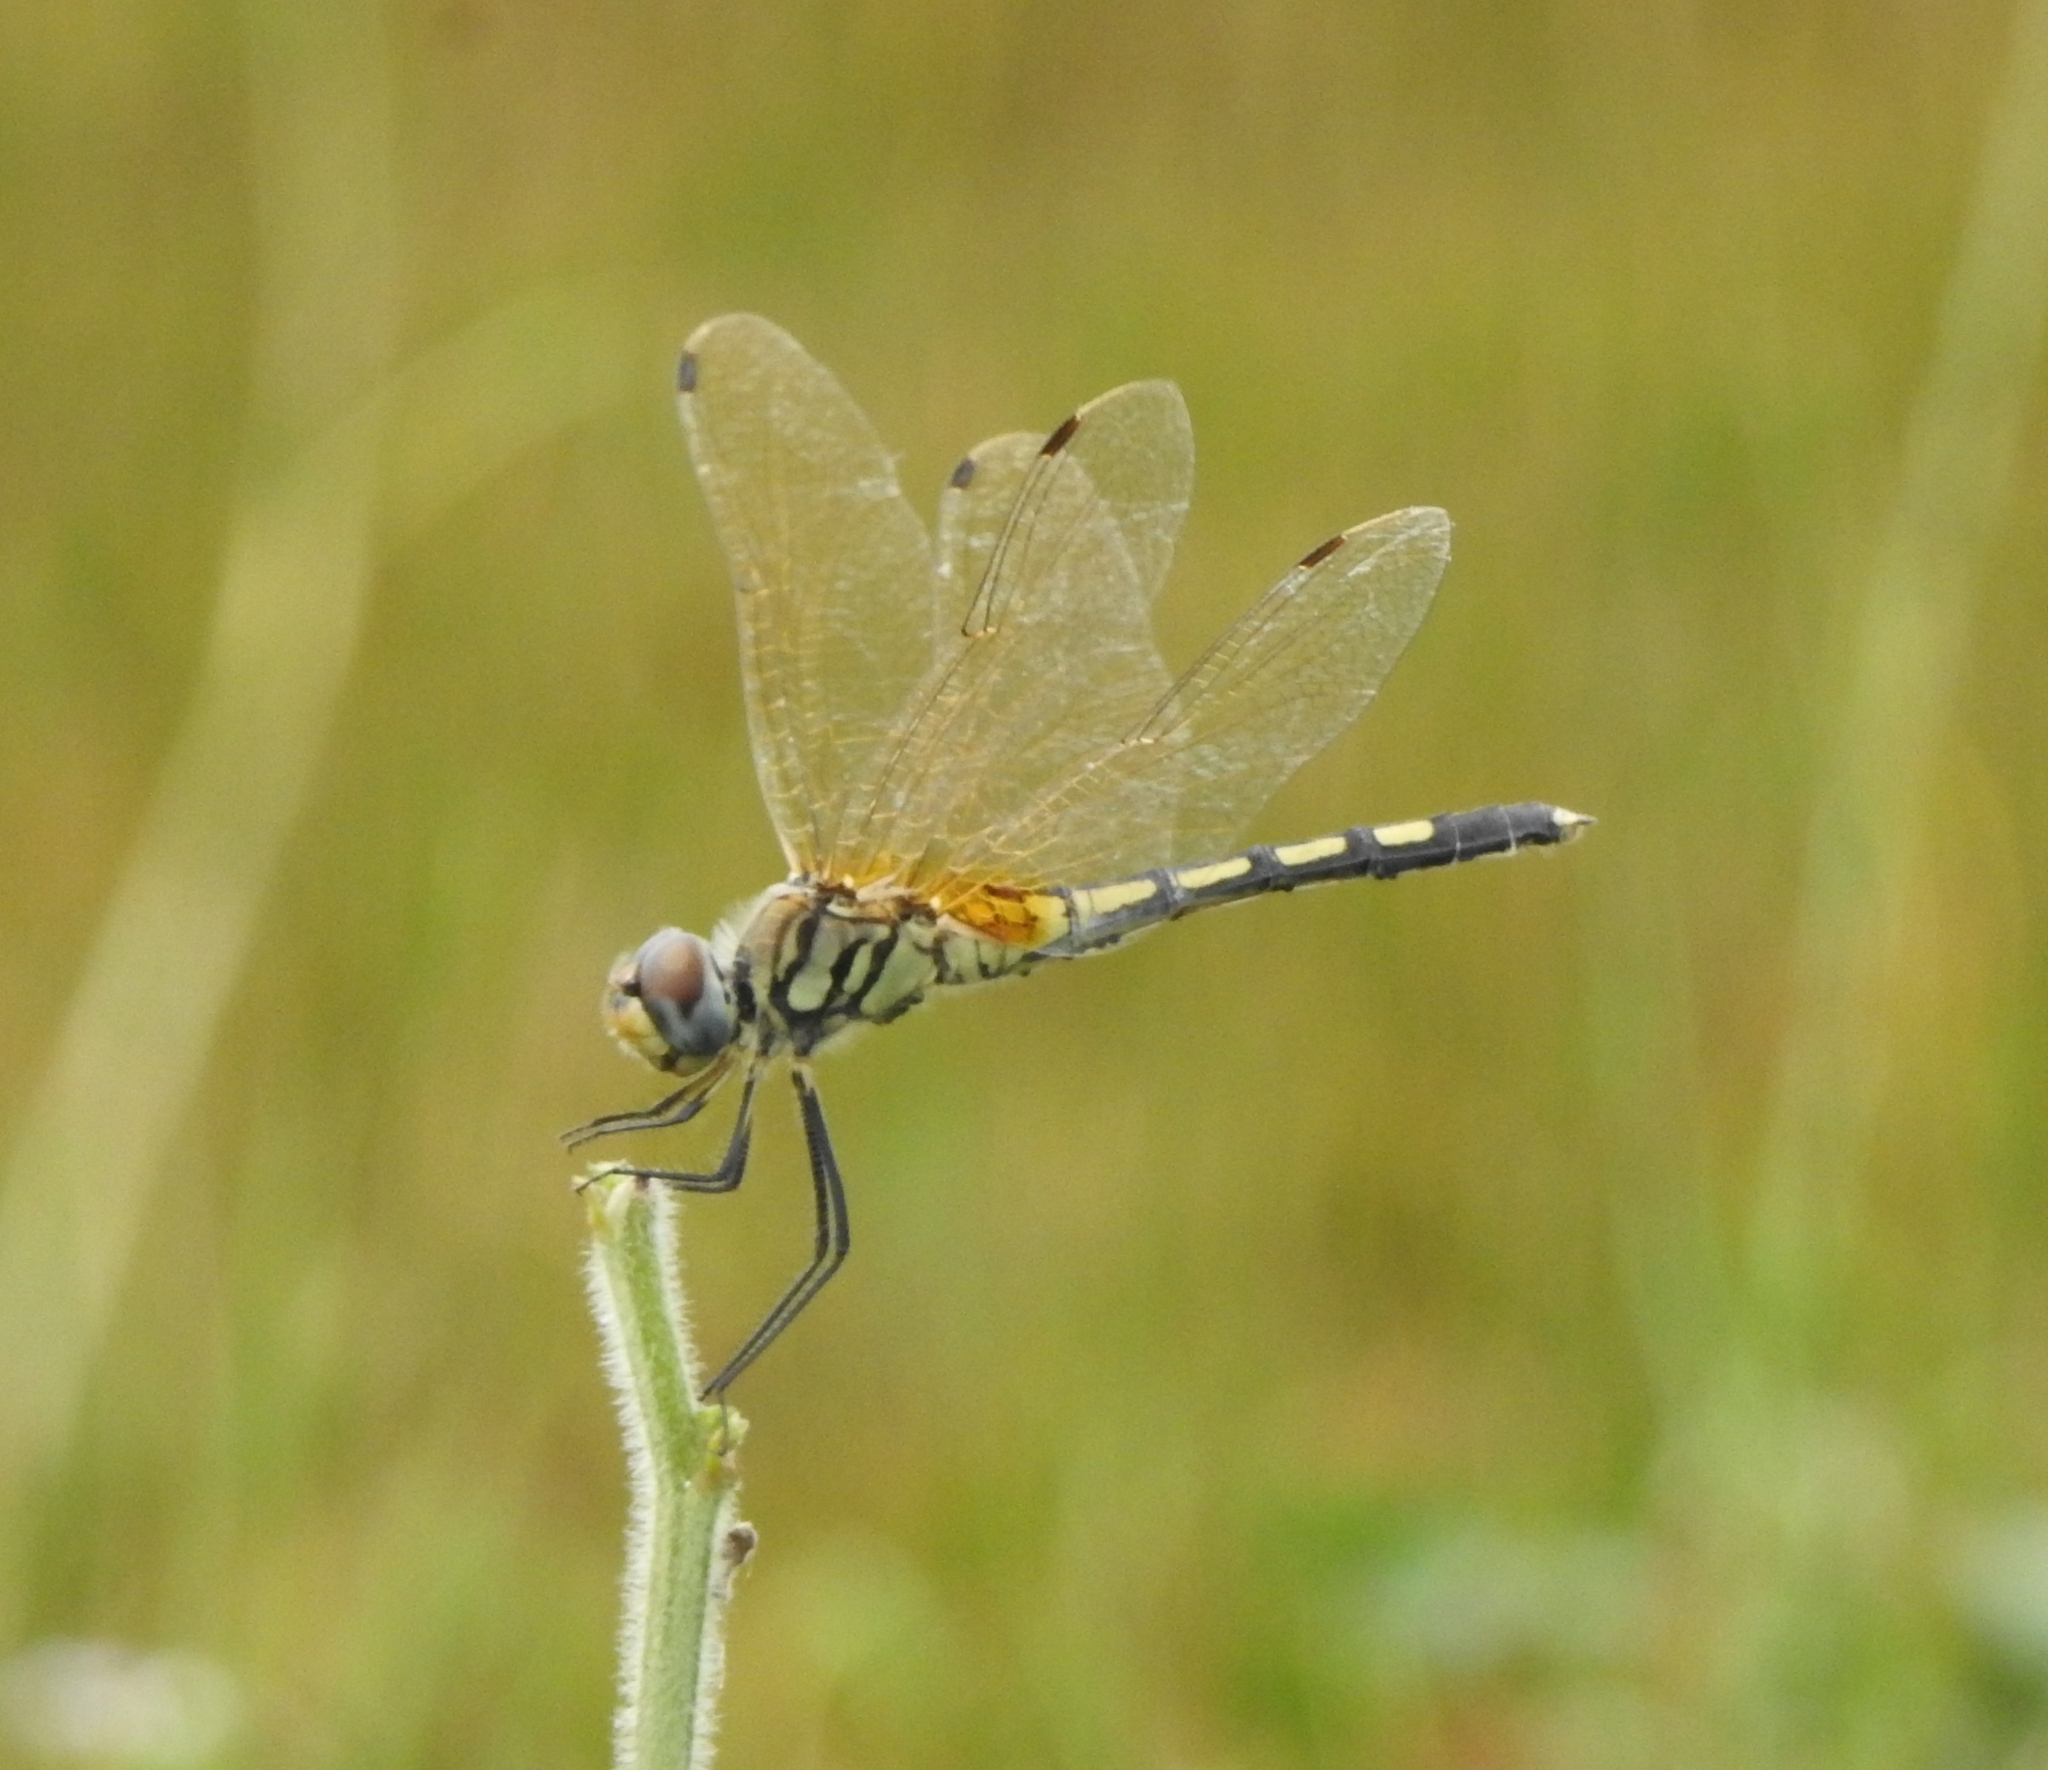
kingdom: Animalia
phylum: Arthropoda
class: Insecta
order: Odonata
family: Libellulidae
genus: Trithemis
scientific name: Trithemis pallidinervis
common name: Dancing dropwing
